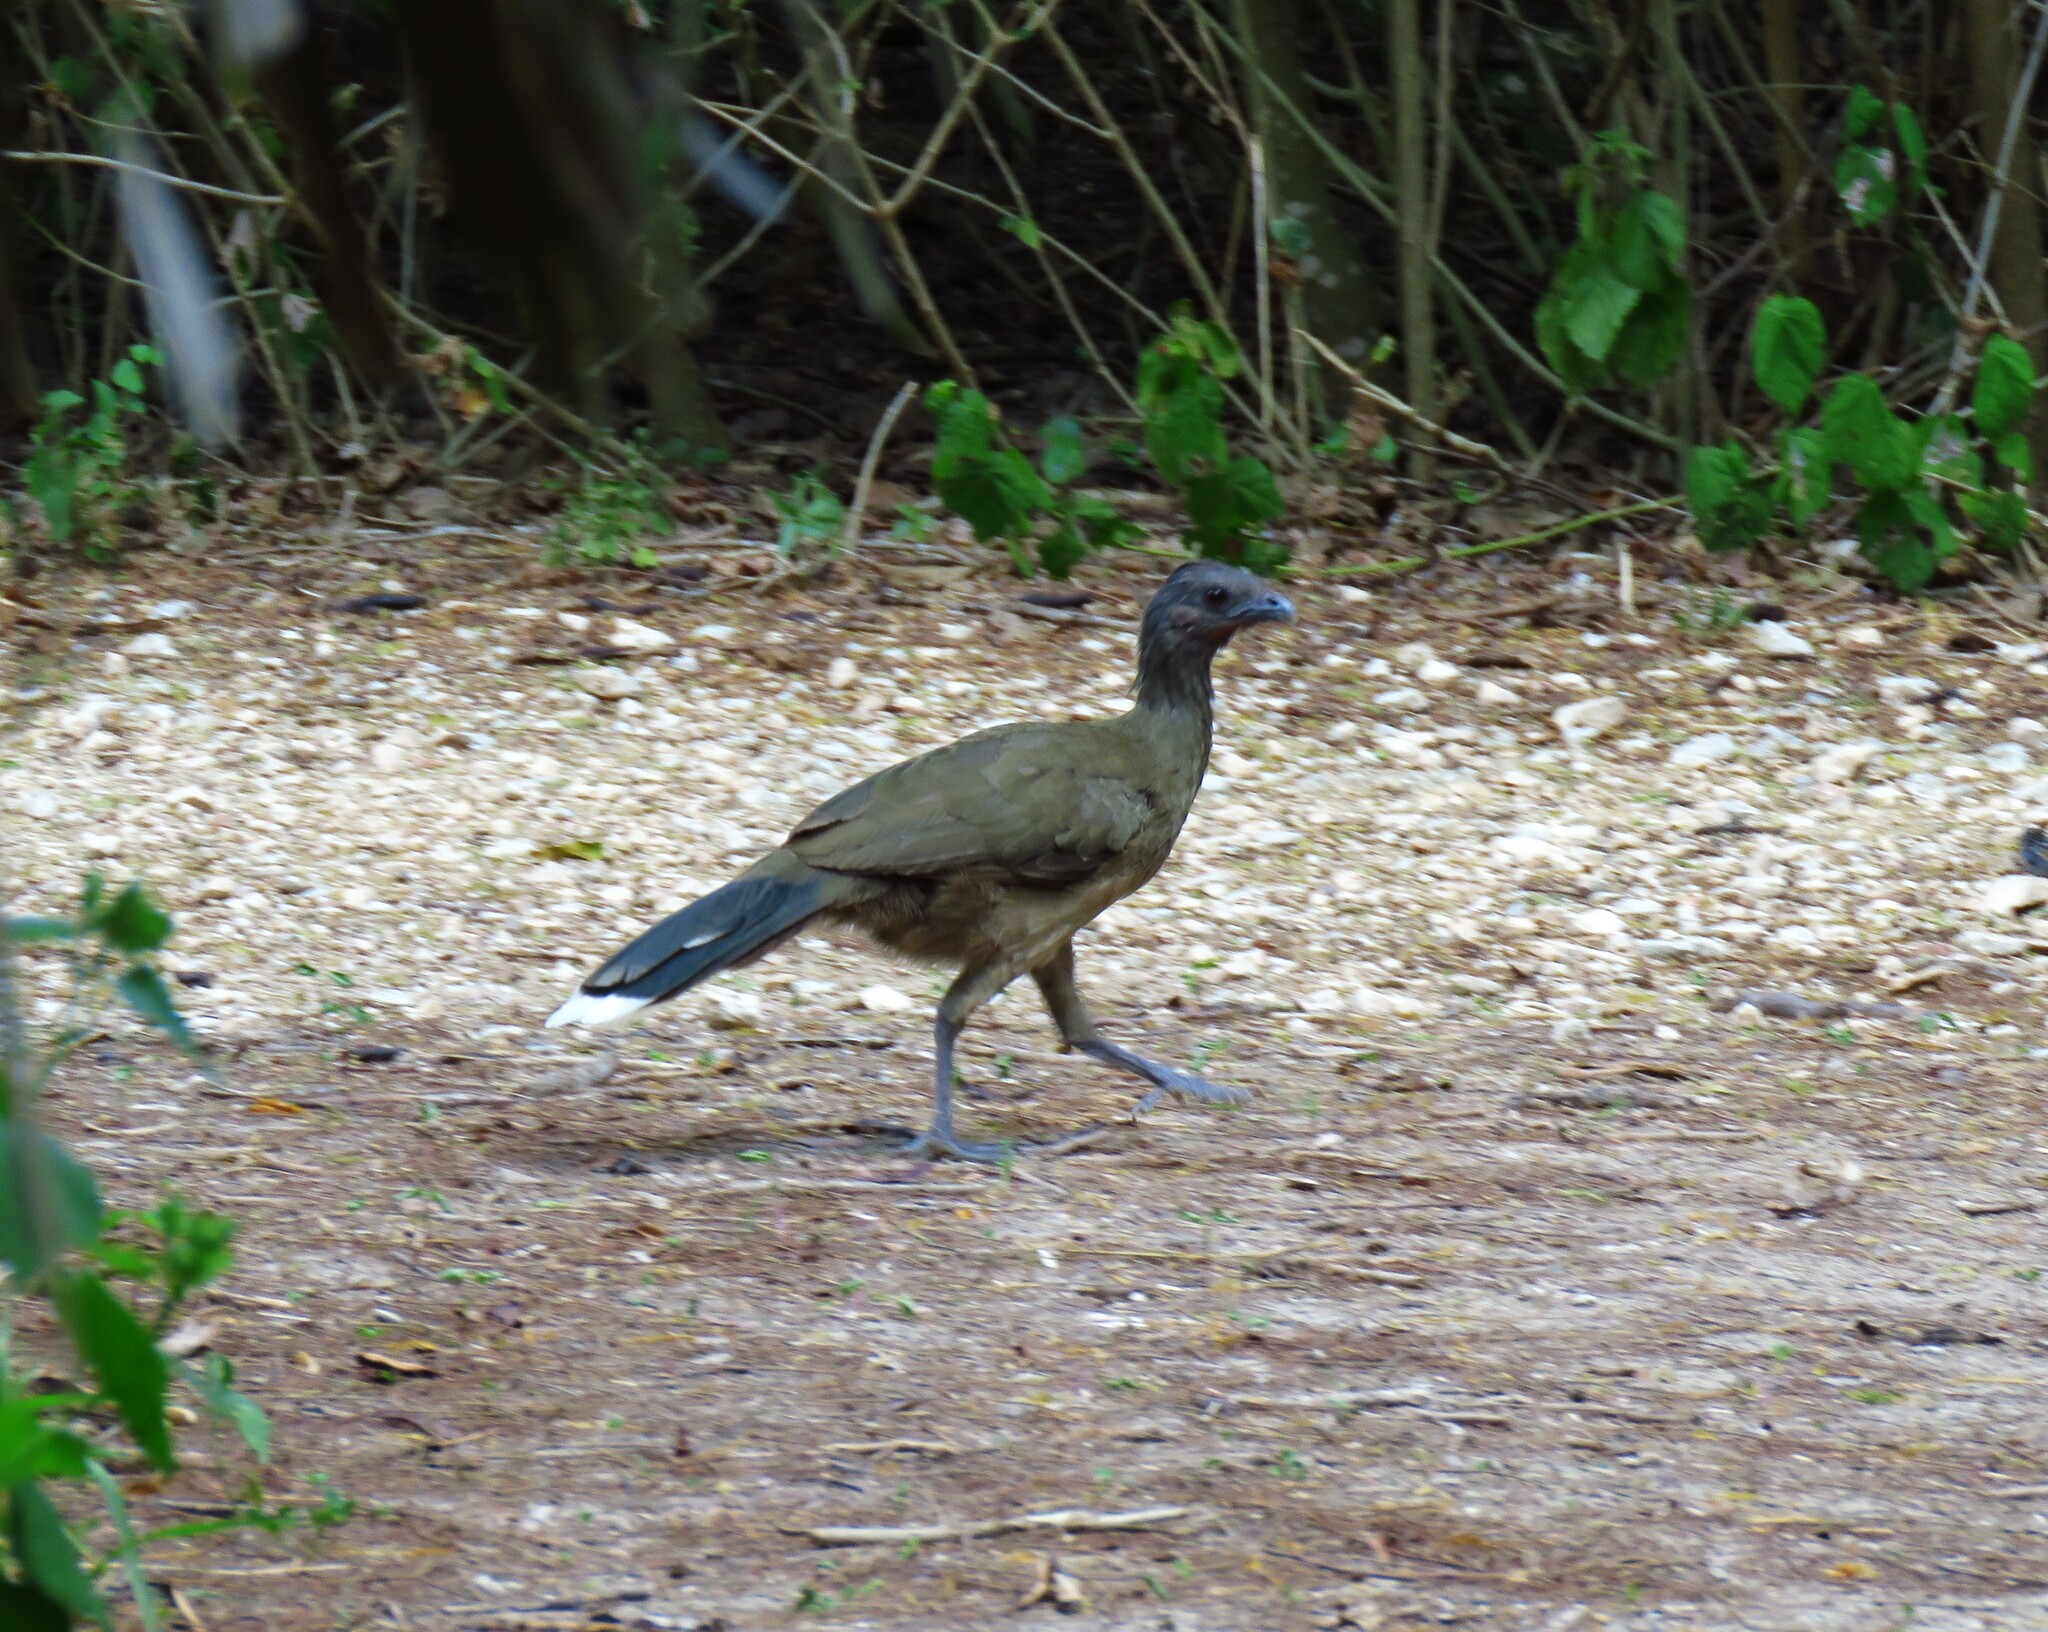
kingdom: Animalia
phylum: Chordata
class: Aves
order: Galliformes
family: Cracidae
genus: Ortalis
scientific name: Ortalis vetula
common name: Plain chachalaca
